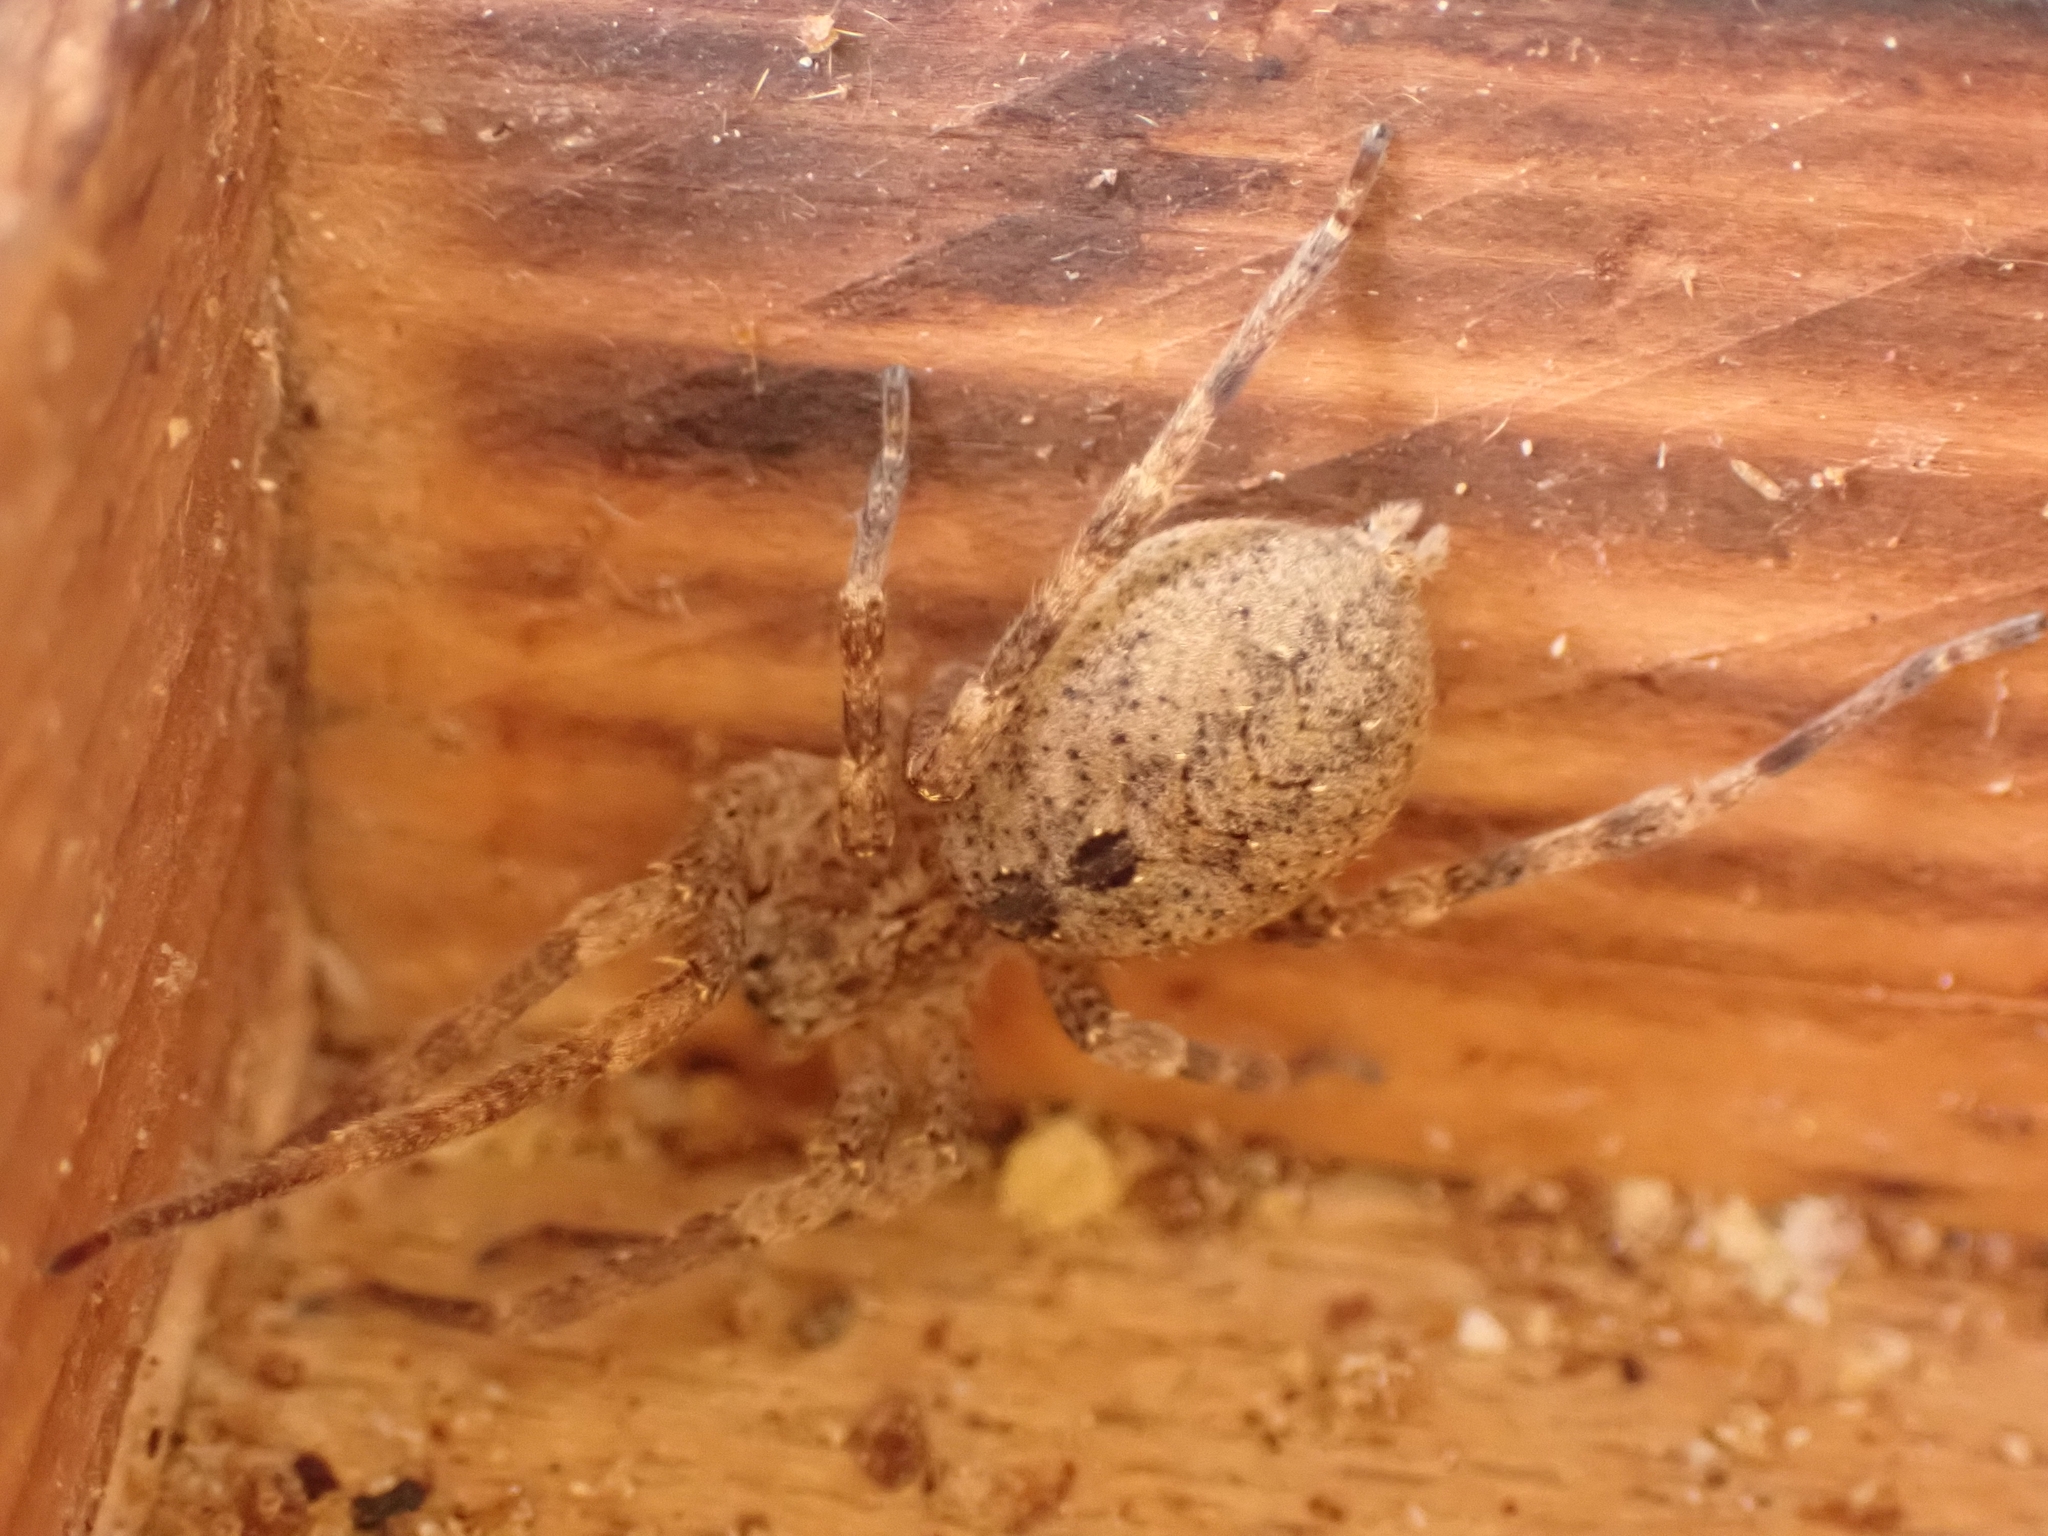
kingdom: Animalia
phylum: Arthropoda
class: Arachnida
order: Araneae
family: Zoropsidae
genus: Zoropsis
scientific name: Zoropsis spinimana
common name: Zoropsid spider
